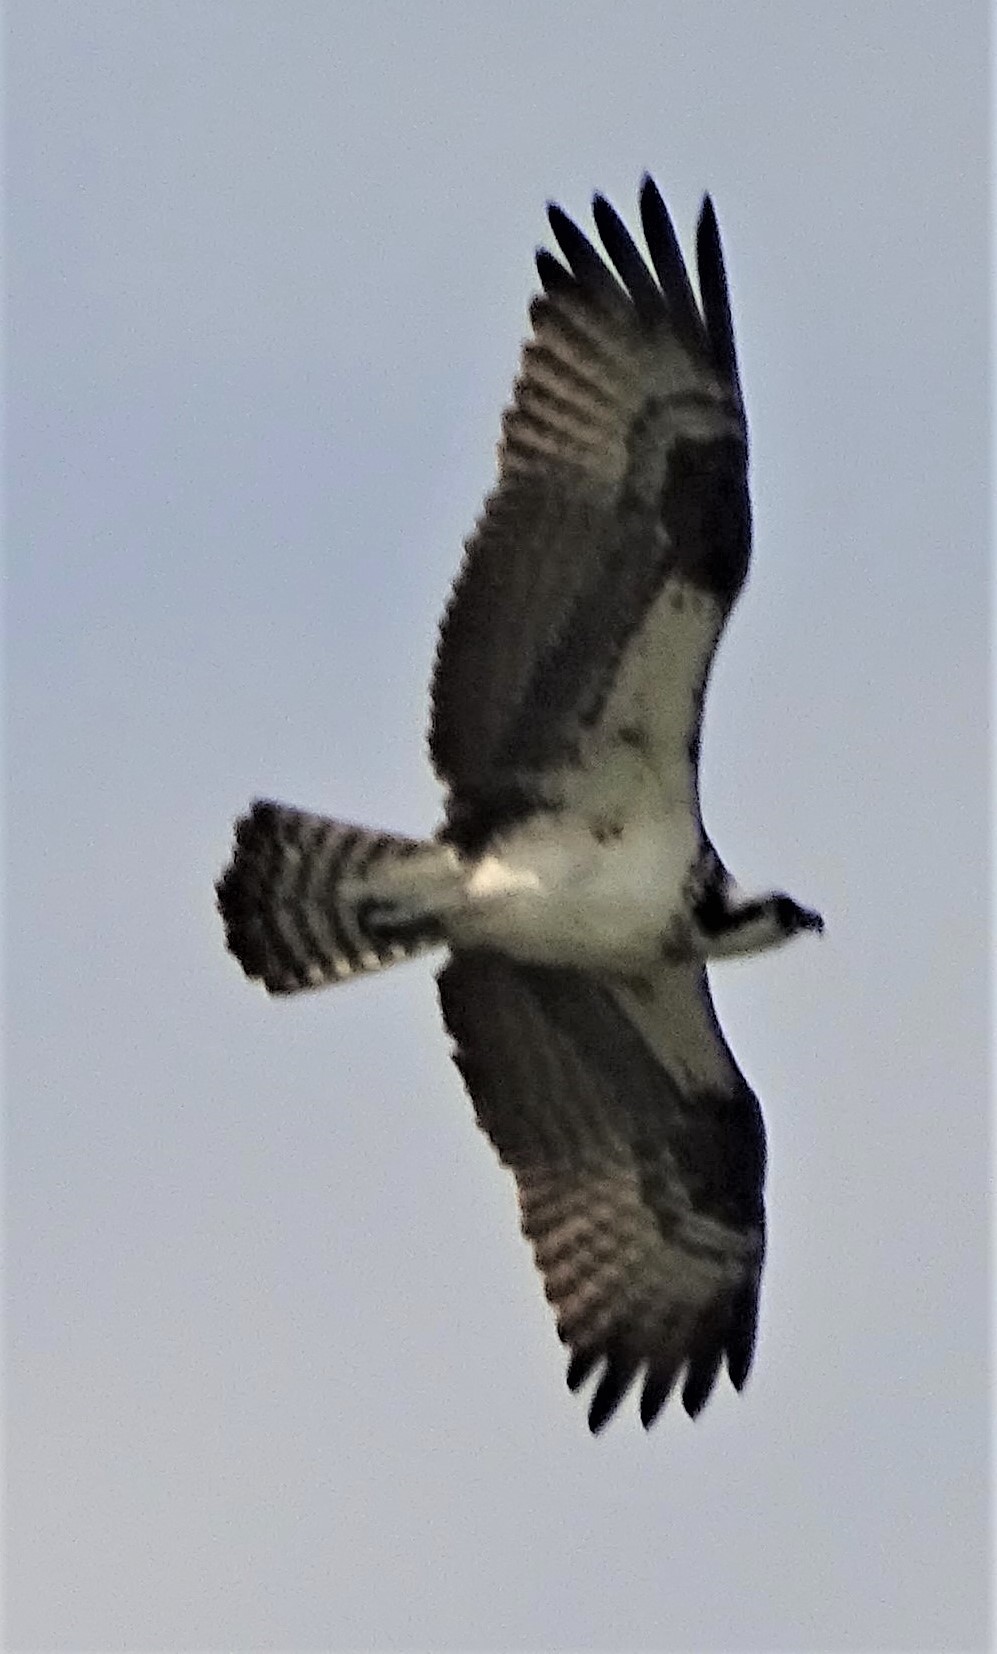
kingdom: Animalia
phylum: Chordata
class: Aves
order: Accipitriformes
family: Pandionidae
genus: Pandion
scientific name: Pandion haliaetus
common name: Osprey
